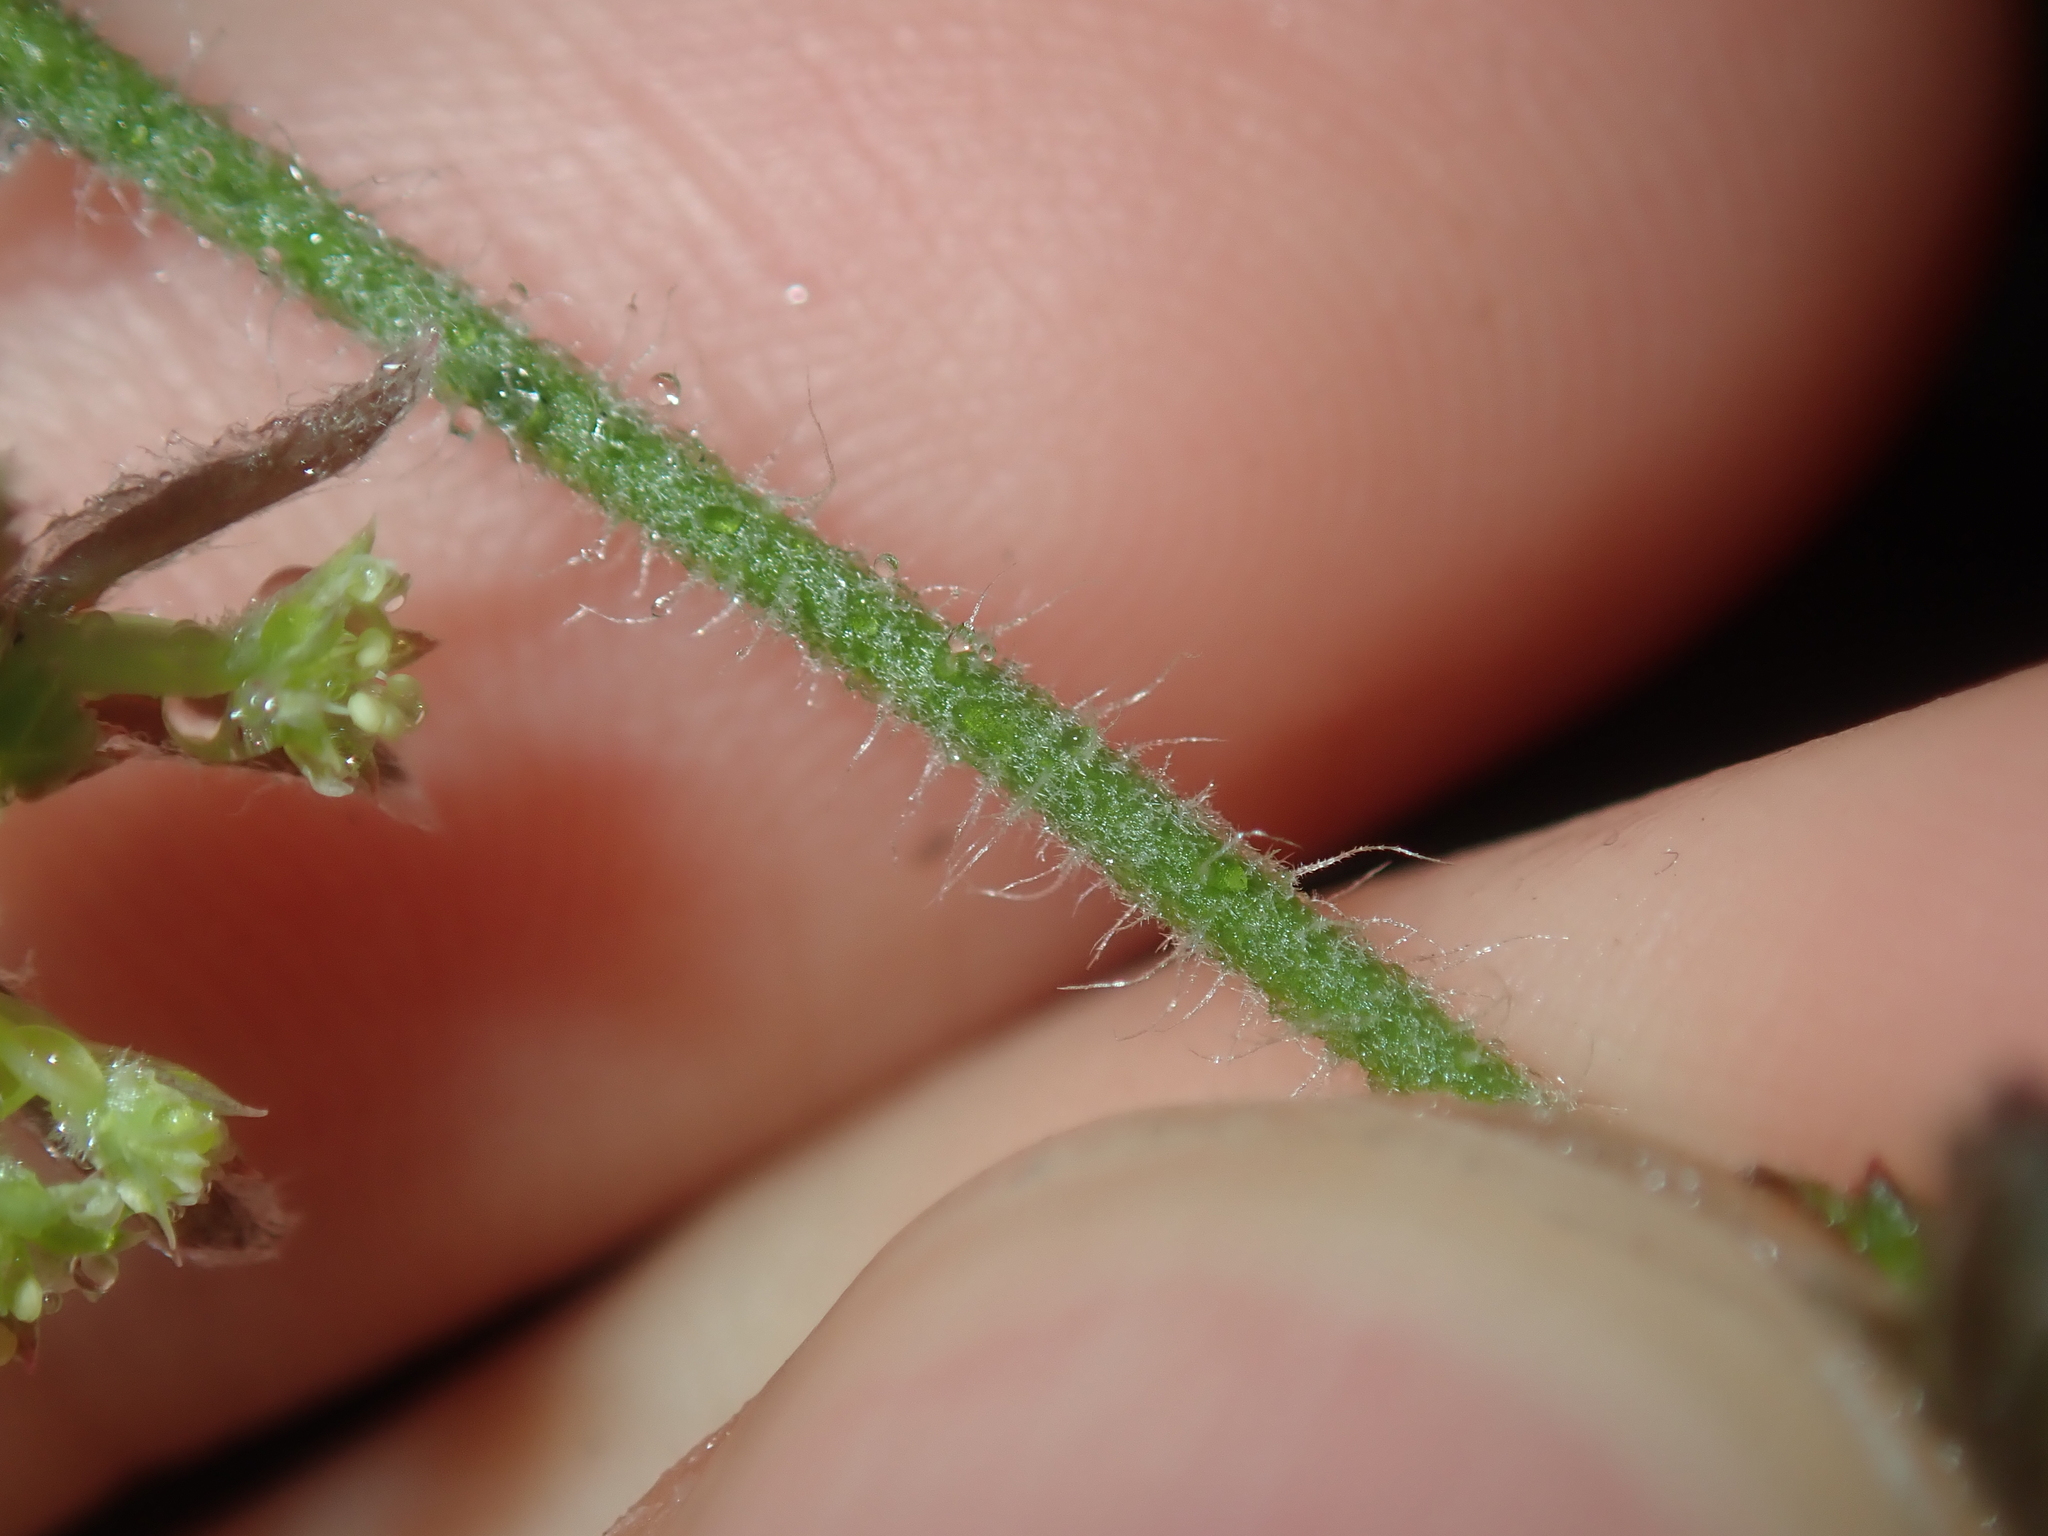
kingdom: Plantae
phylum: Tracheophyta
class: Magnoliopsida
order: Apiales
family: Apiaceae
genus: Xanthosia
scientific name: Xanthosia huegelii
